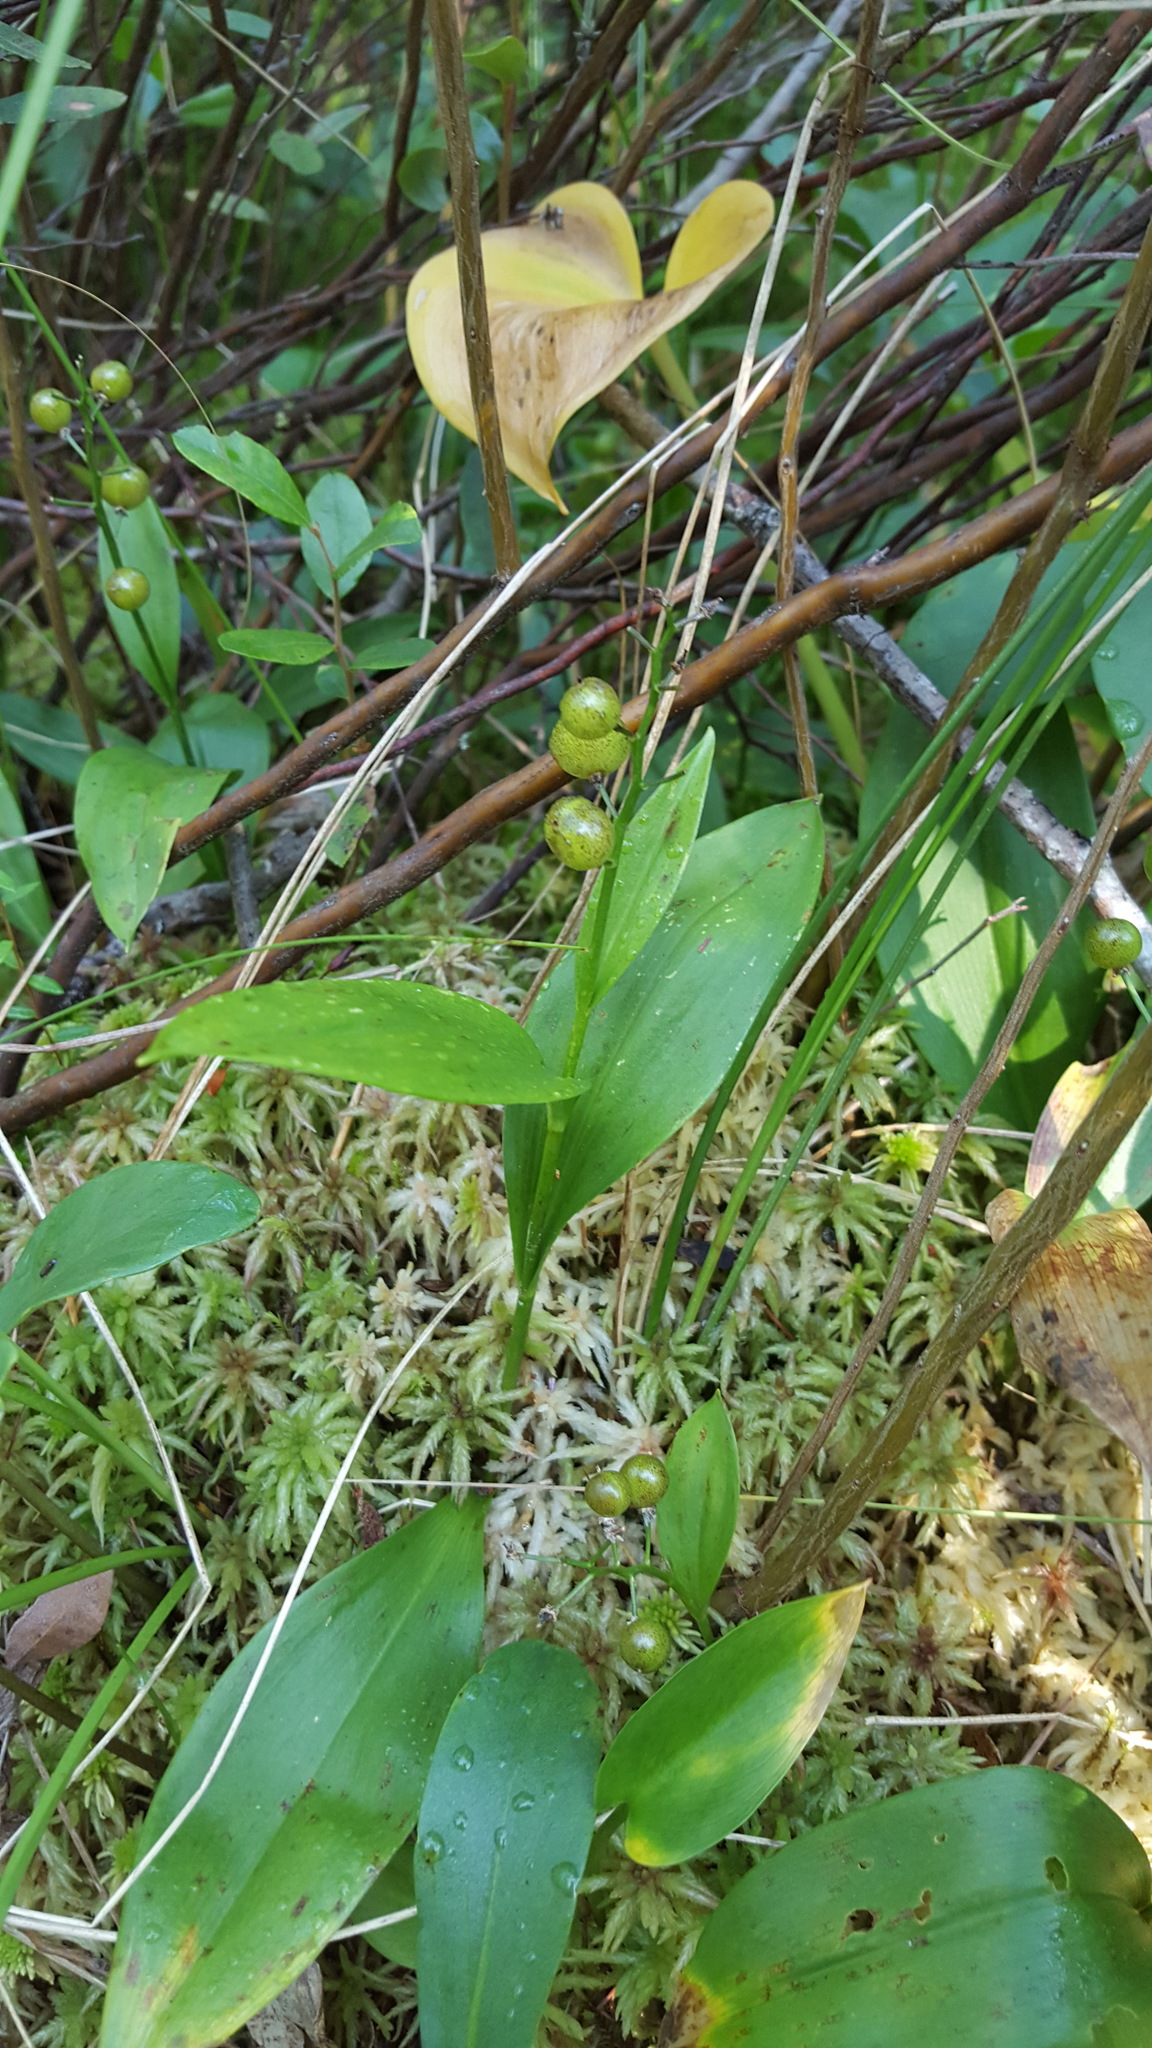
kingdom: Plantae
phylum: Tracheophyta
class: Liliopsida
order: Asparagales
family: Asparagaceae
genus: Maianthemum
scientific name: Maianthemum trifolium
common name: Swamp false solomon's seal
